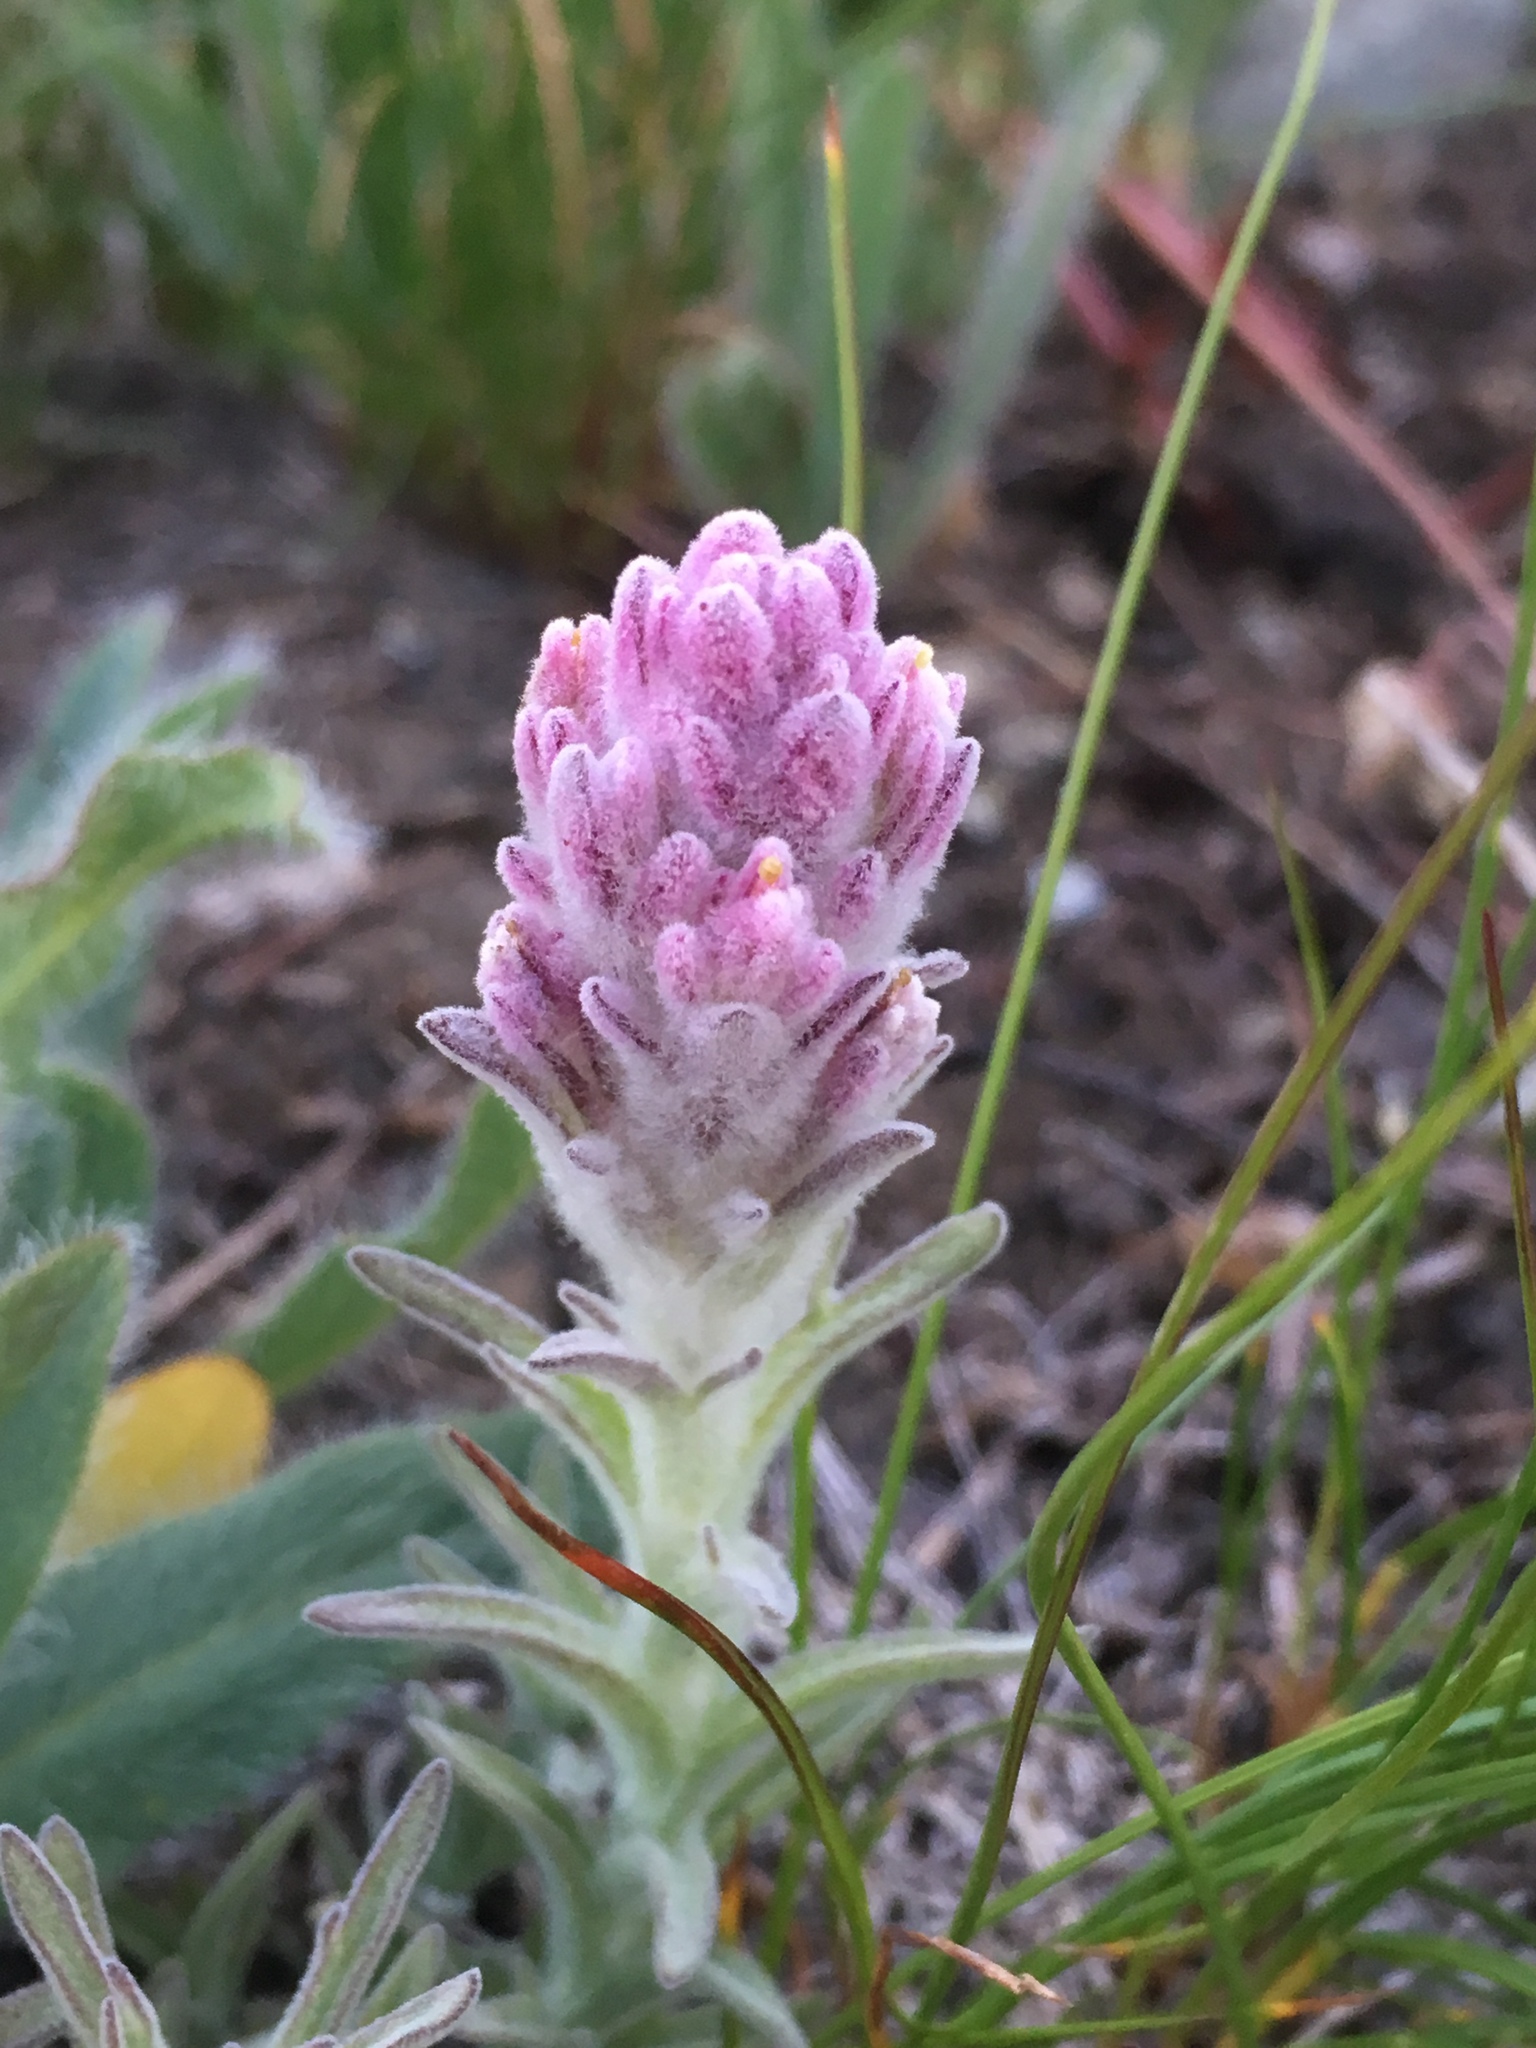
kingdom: Plantae
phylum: Tracheophyta
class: Magnoliopsida
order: Lamiales
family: Orobanchaceae
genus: Castilleja
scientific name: Castilleja schizotricha
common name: Split-hair indian paintbrush
